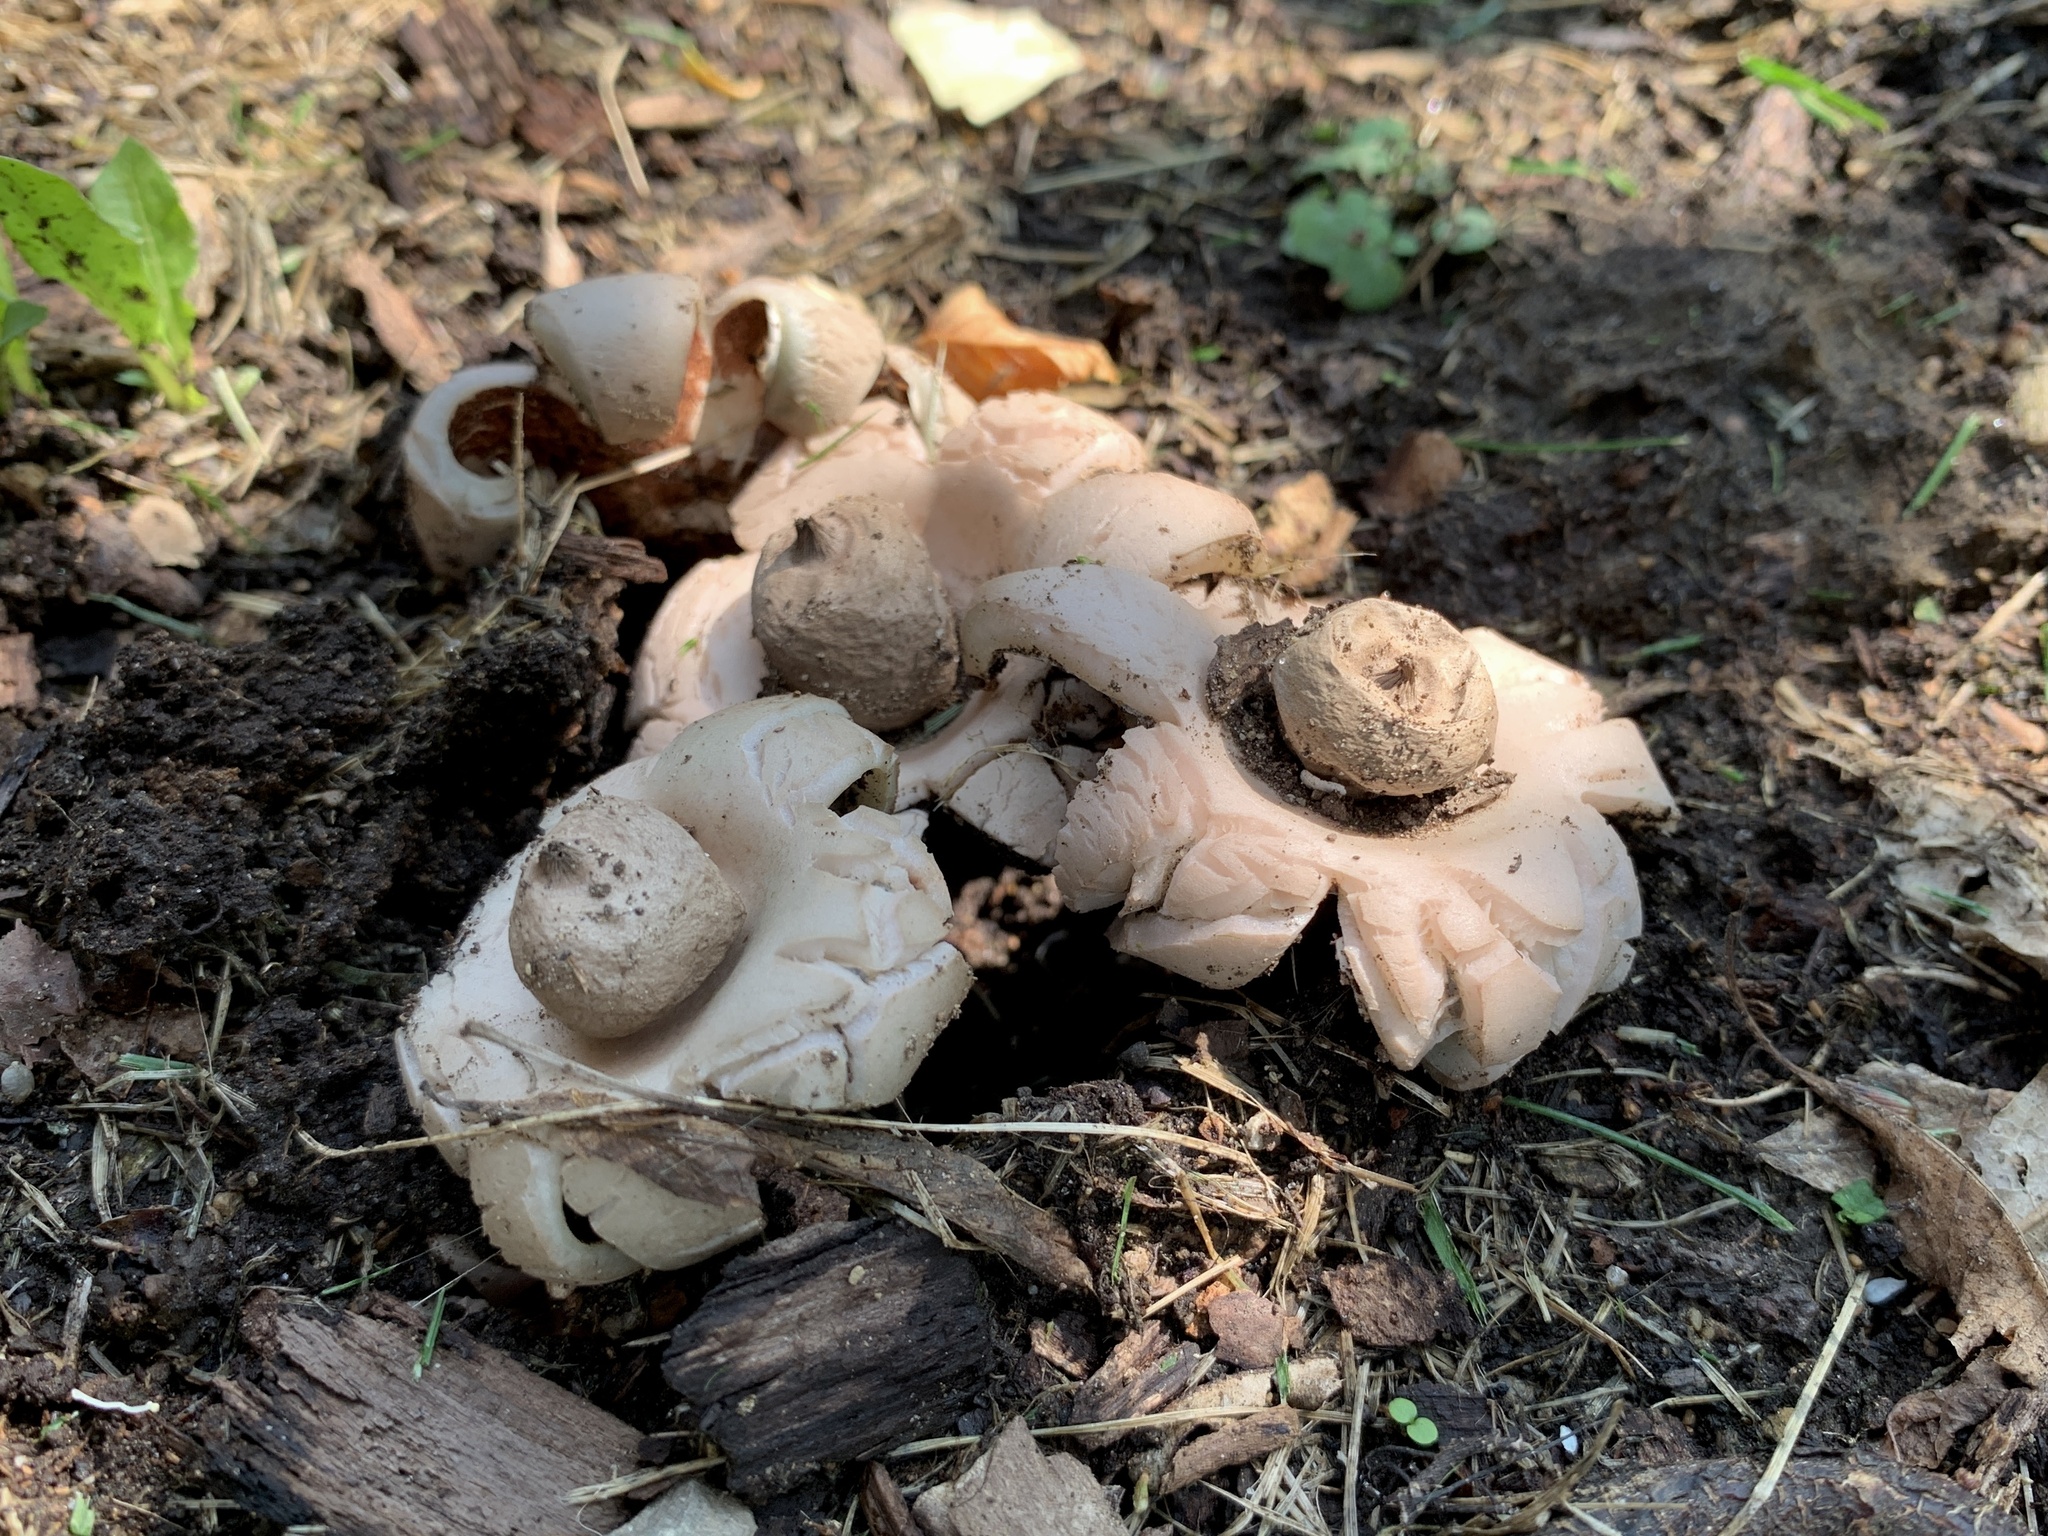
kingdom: Fungi
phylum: Basidiomycota
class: Agaricomycetes
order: Geastrales
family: Geastraceae
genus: Geastrum
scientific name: Geastrum saccatum
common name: Rounded earthstar
